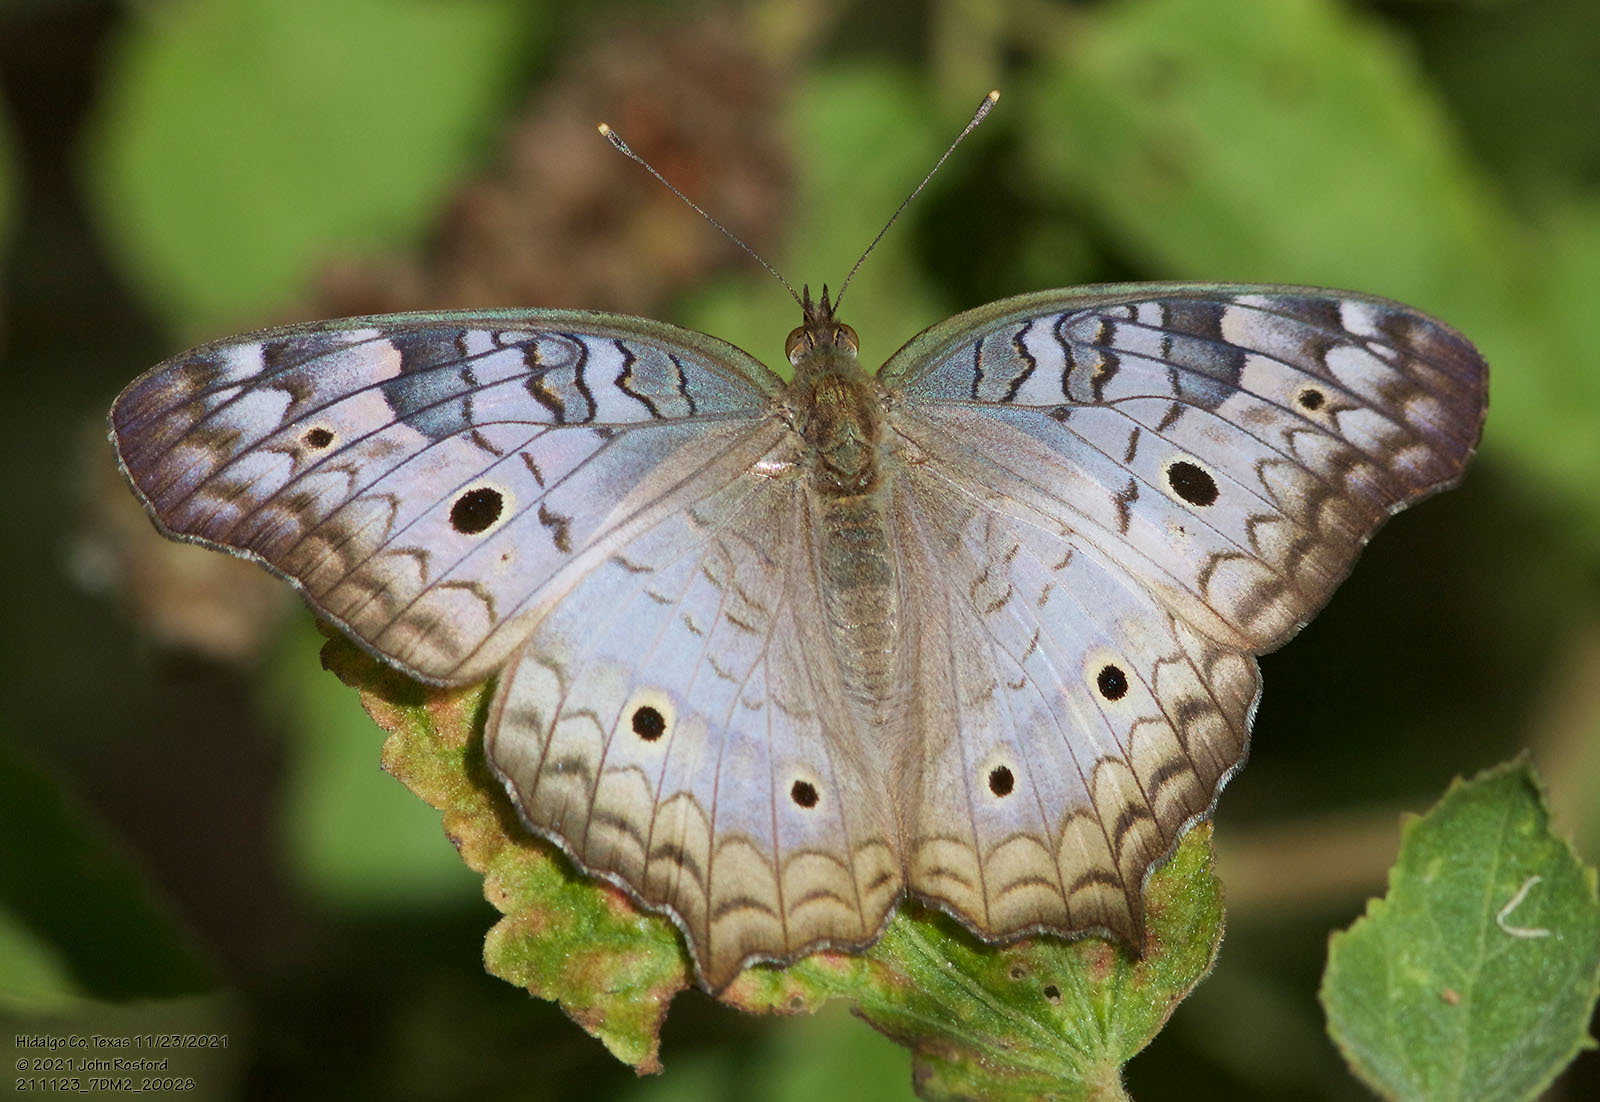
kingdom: Animalia
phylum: Arthropoda
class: Insecta
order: Lepidoptera
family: Nymphalidae
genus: Anartia
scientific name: Anartia jatrophae
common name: White peacock
